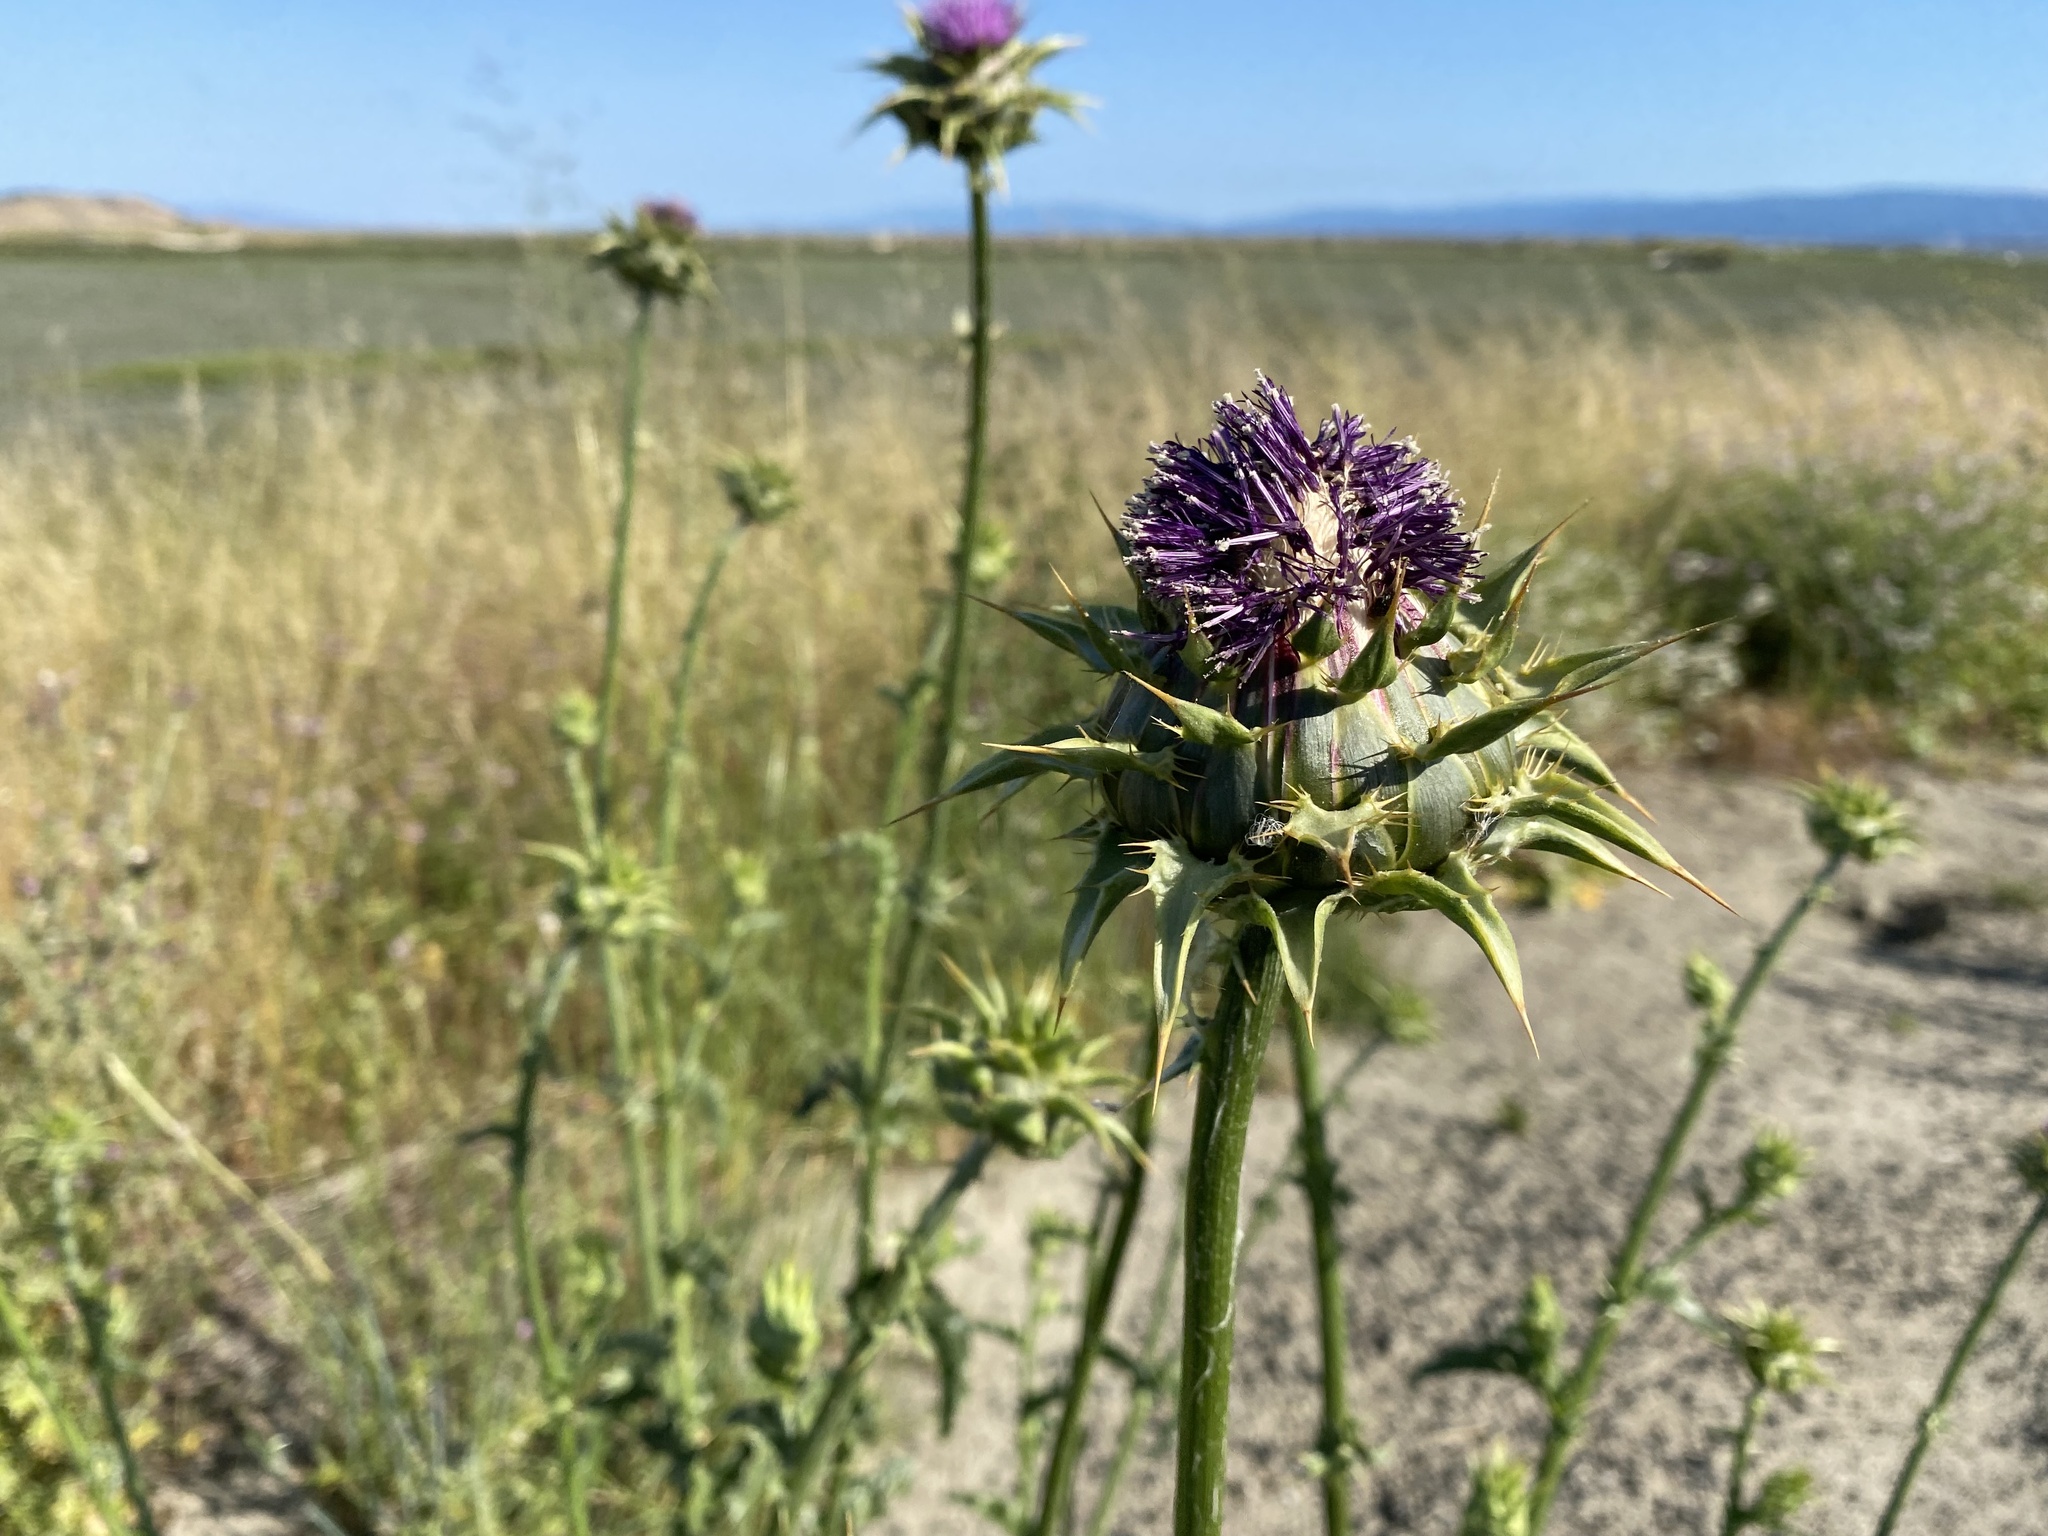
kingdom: Plantae
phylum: Tracheophyta
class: Magnoliopsida
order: Asterales
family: Asteraceae
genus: Silybum
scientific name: Silybum marianum
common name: Milk thistle
